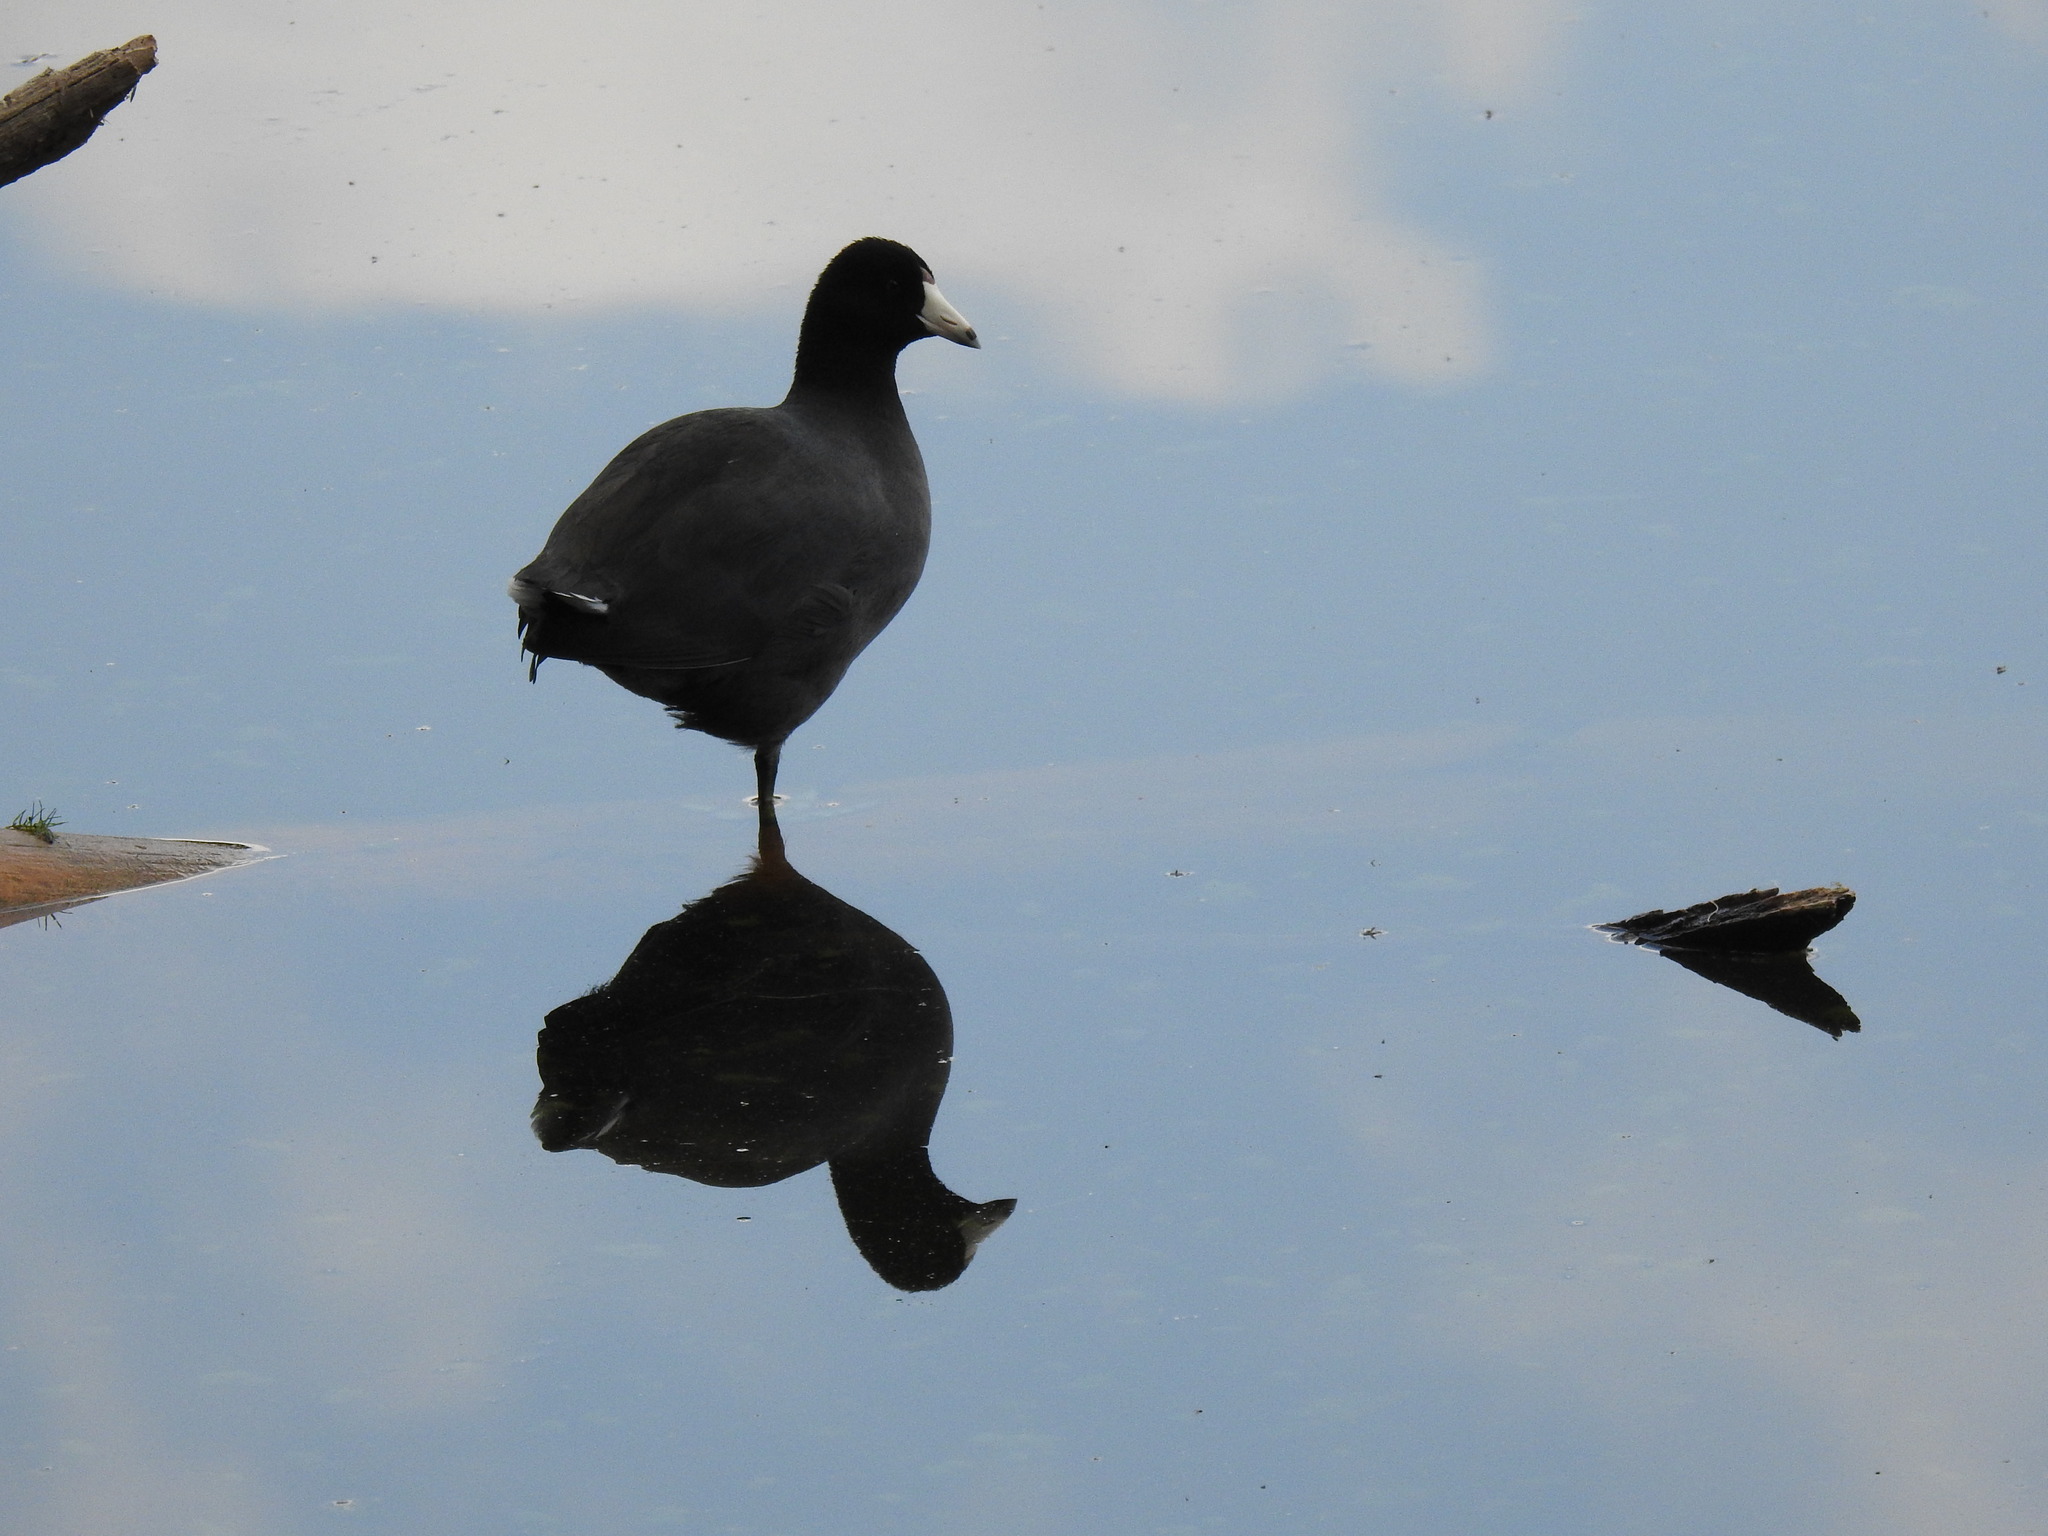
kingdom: Animalia
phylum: Chordata
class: Aves
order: Gruiformes
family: Rallidae
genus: Fulica
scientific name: Fulica americana
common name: American coot
